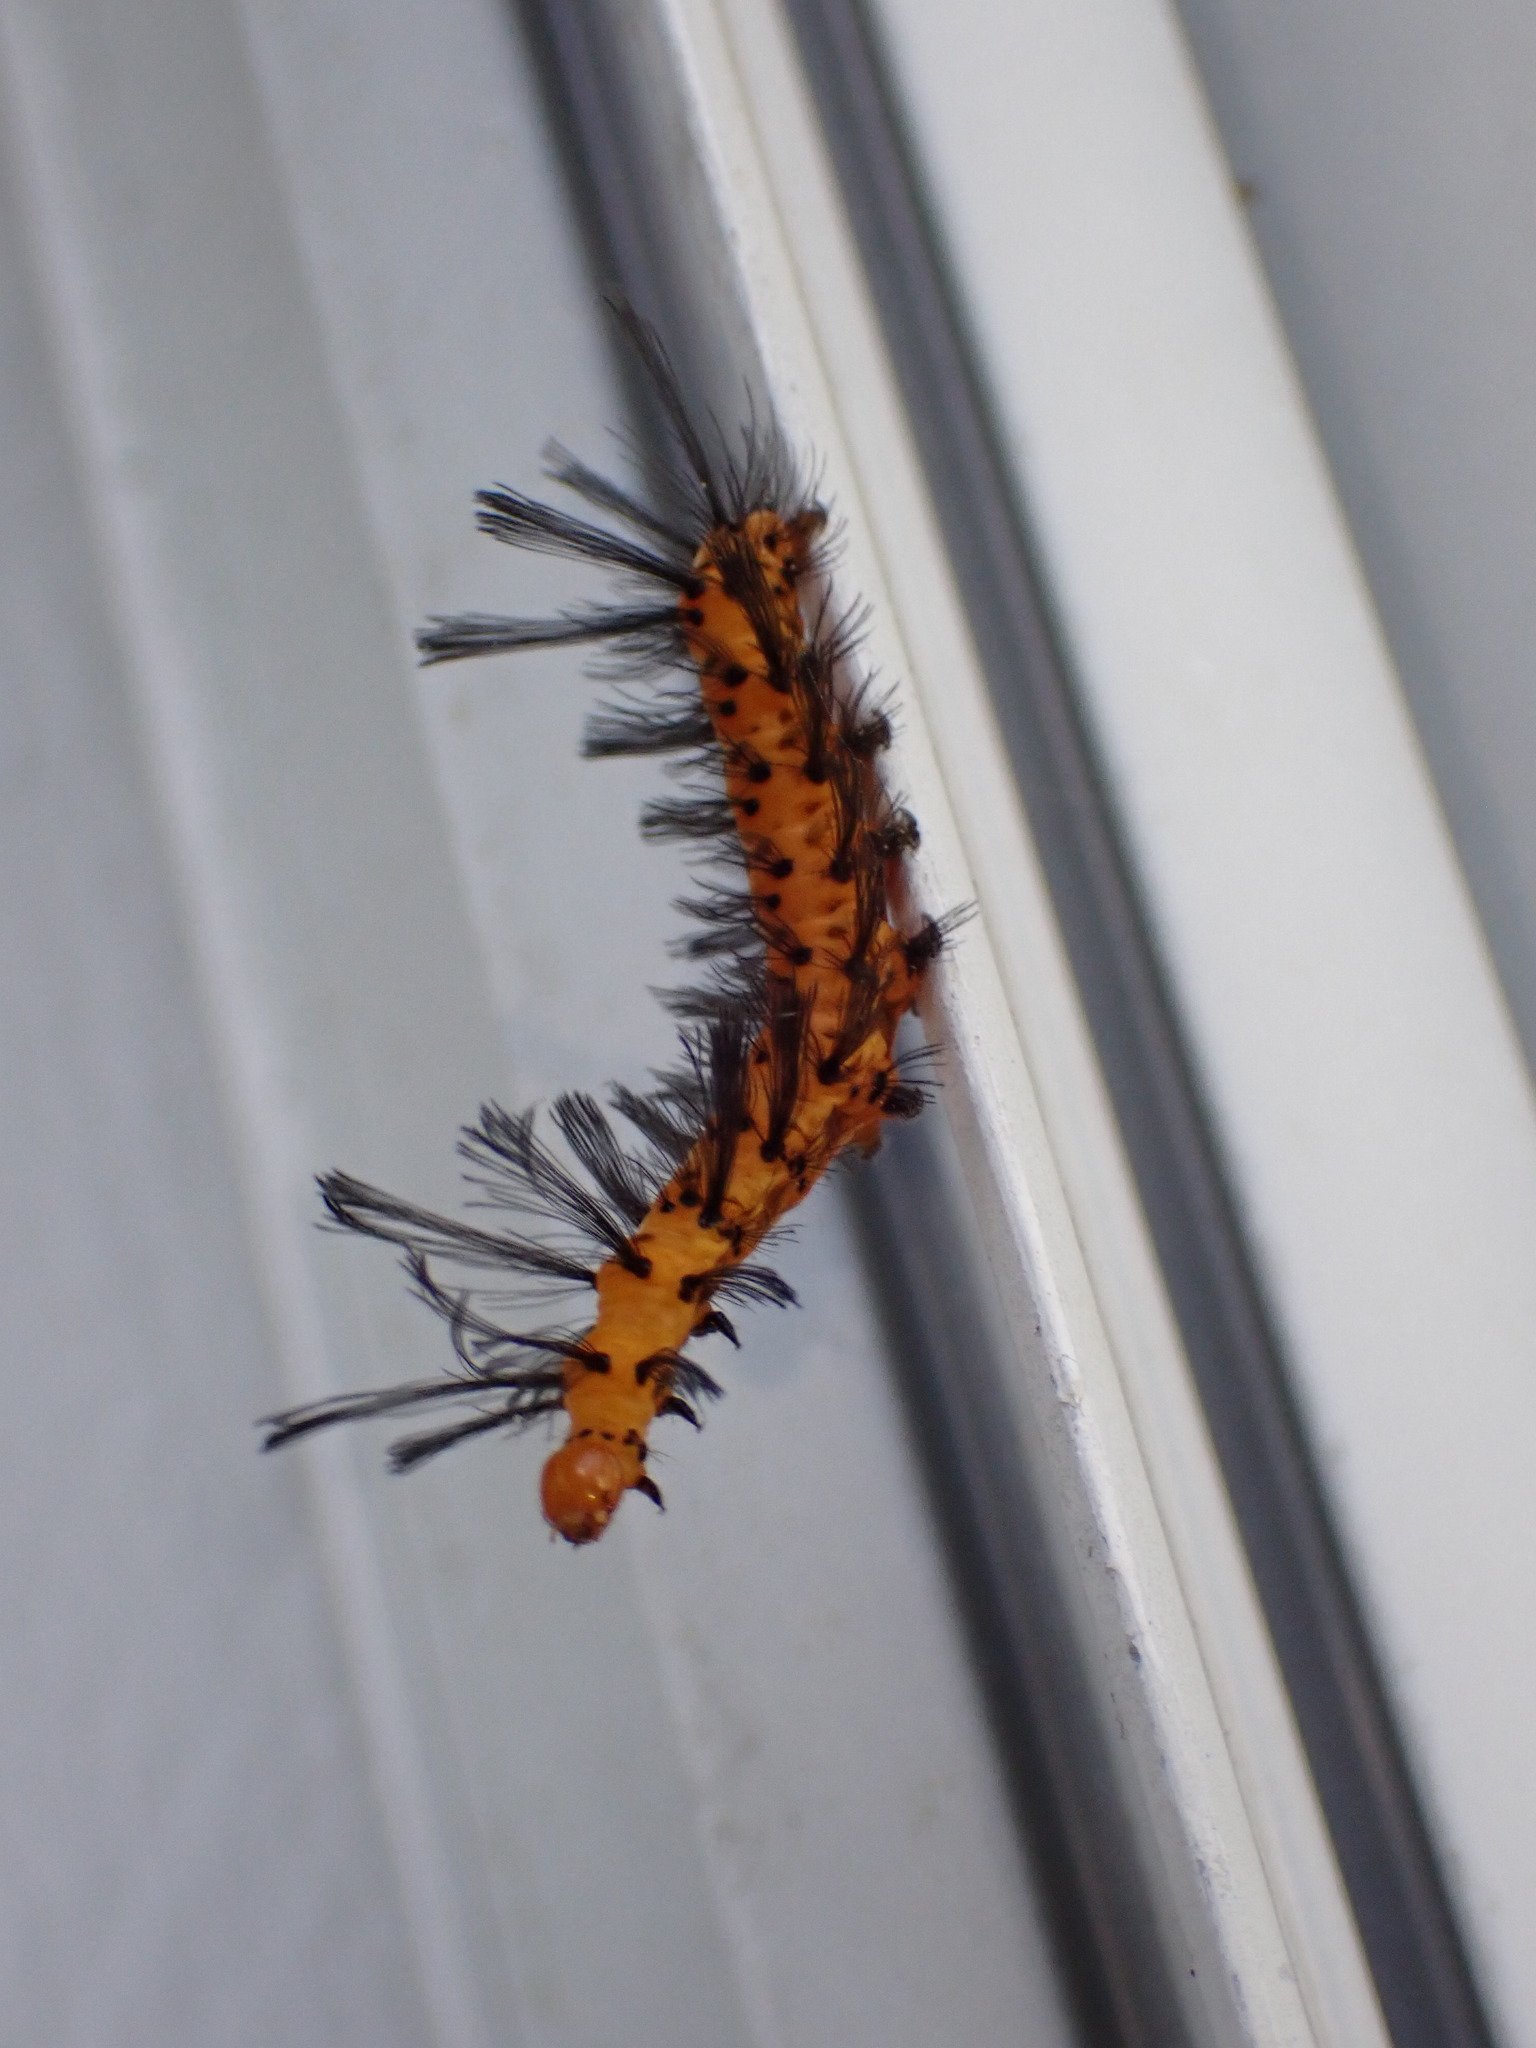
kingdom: Animalia
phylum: Arthropoda
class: Insecta
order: Lepidoptera
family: Erebidae
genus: Syntomeida
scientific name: Syntomeida epilais
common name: Polka-dot wasp moth
